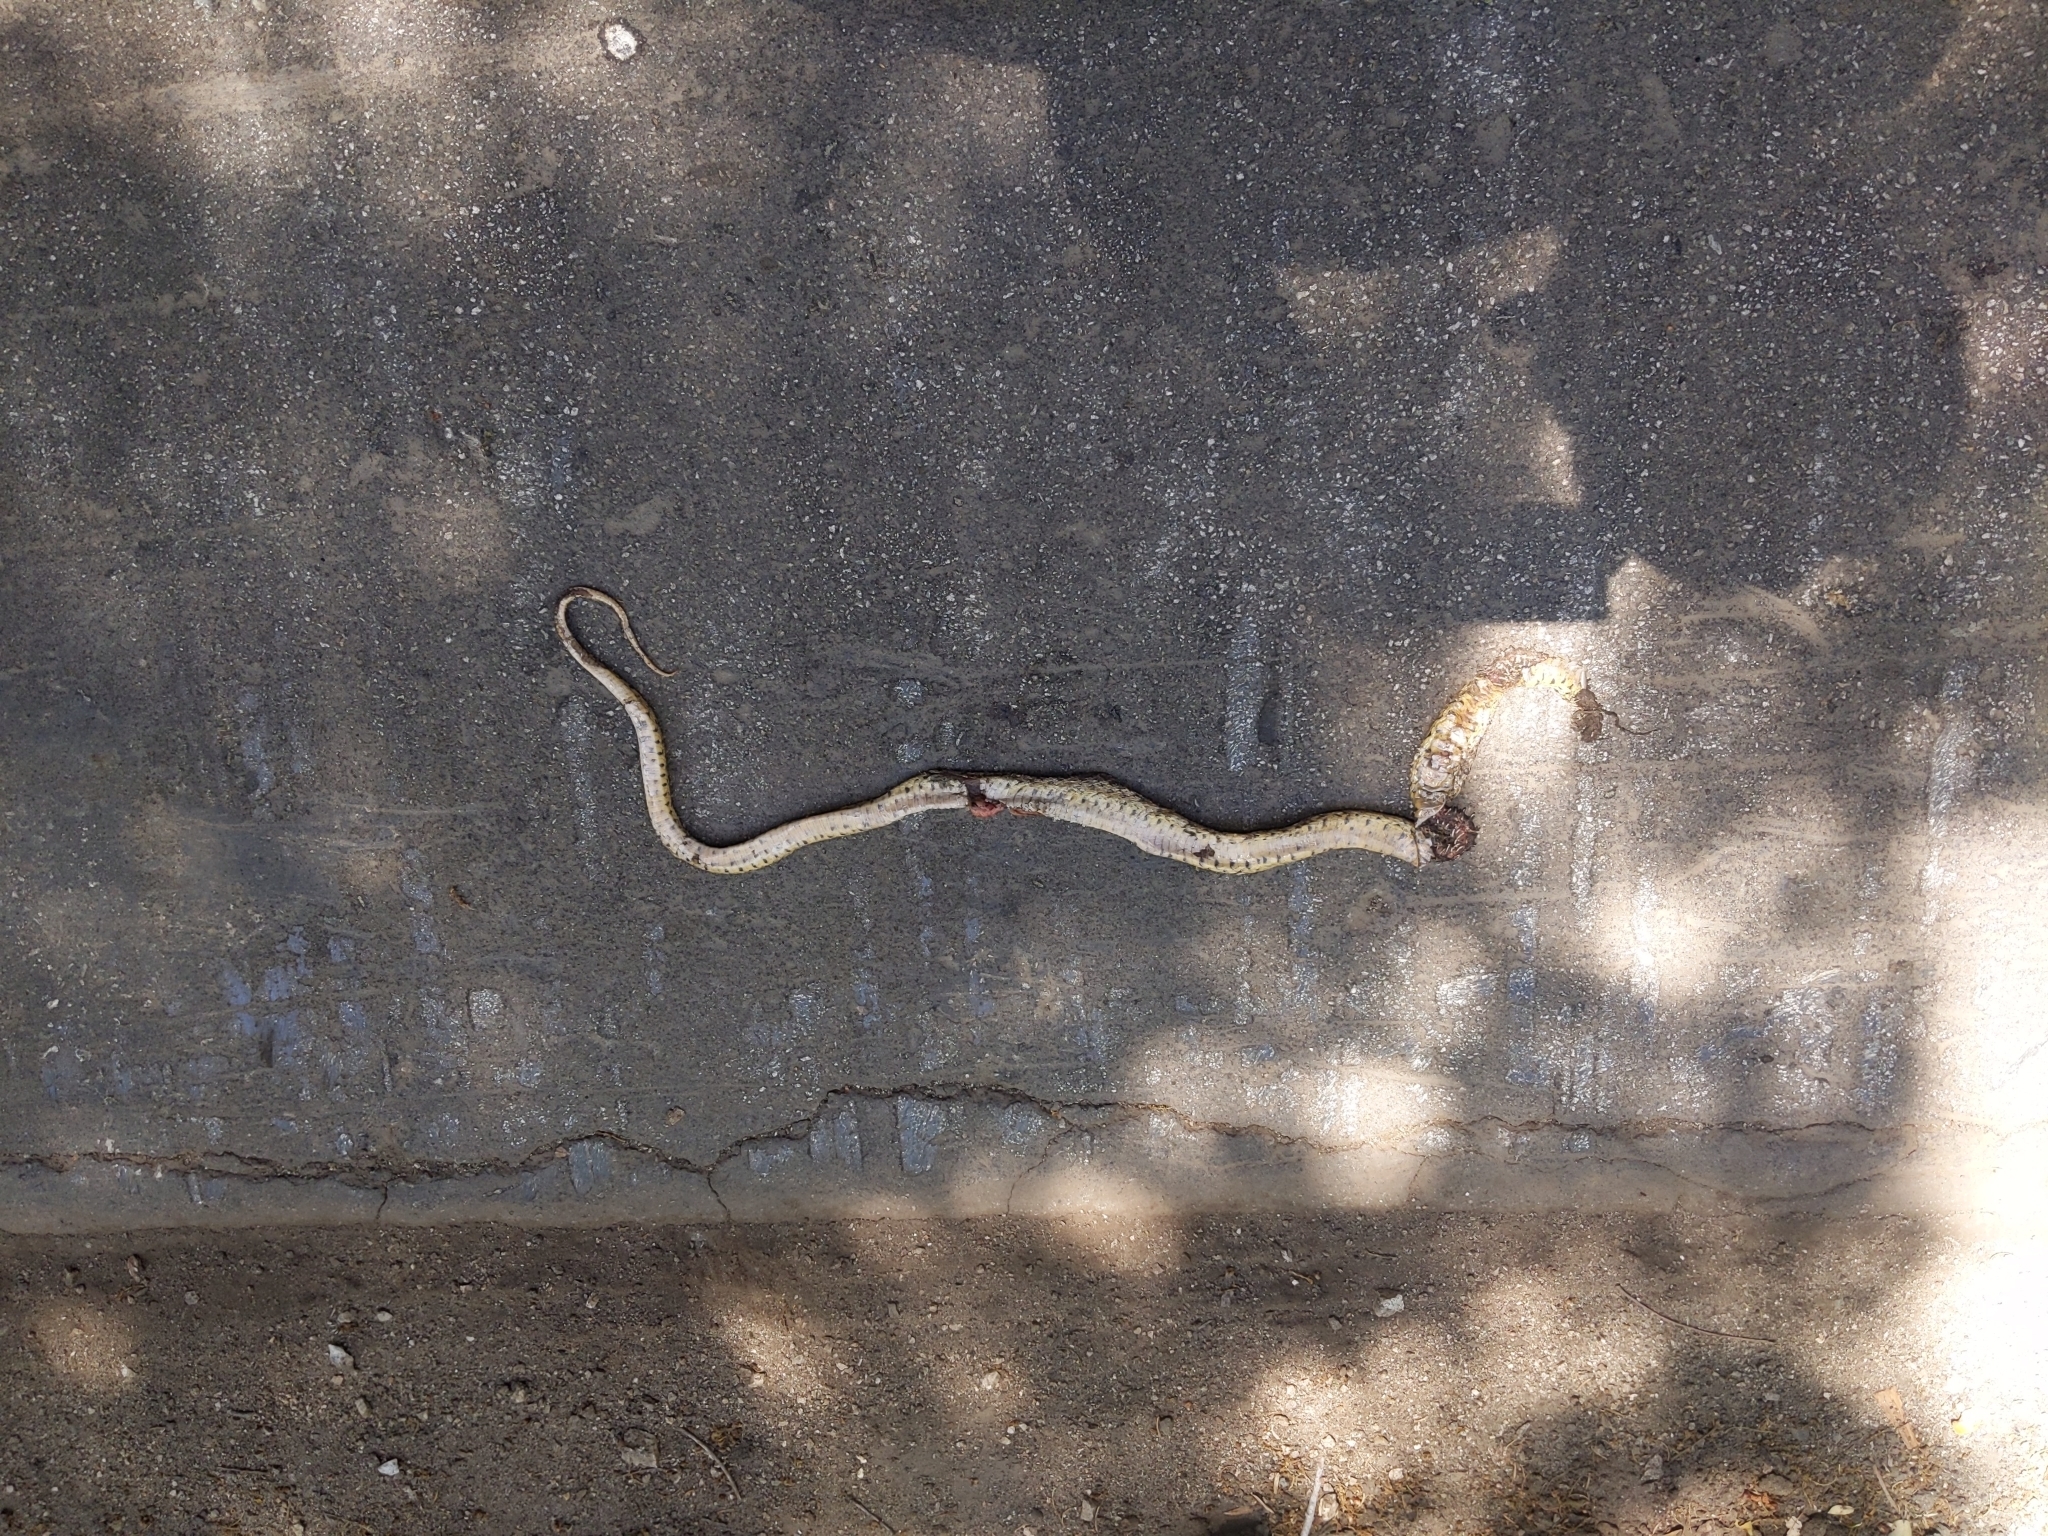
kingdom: Animalia
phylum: Chordata
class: Squamata
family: Colubridae
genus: Pituophis
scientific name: Pituophis catenifer
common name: Gopher snake
